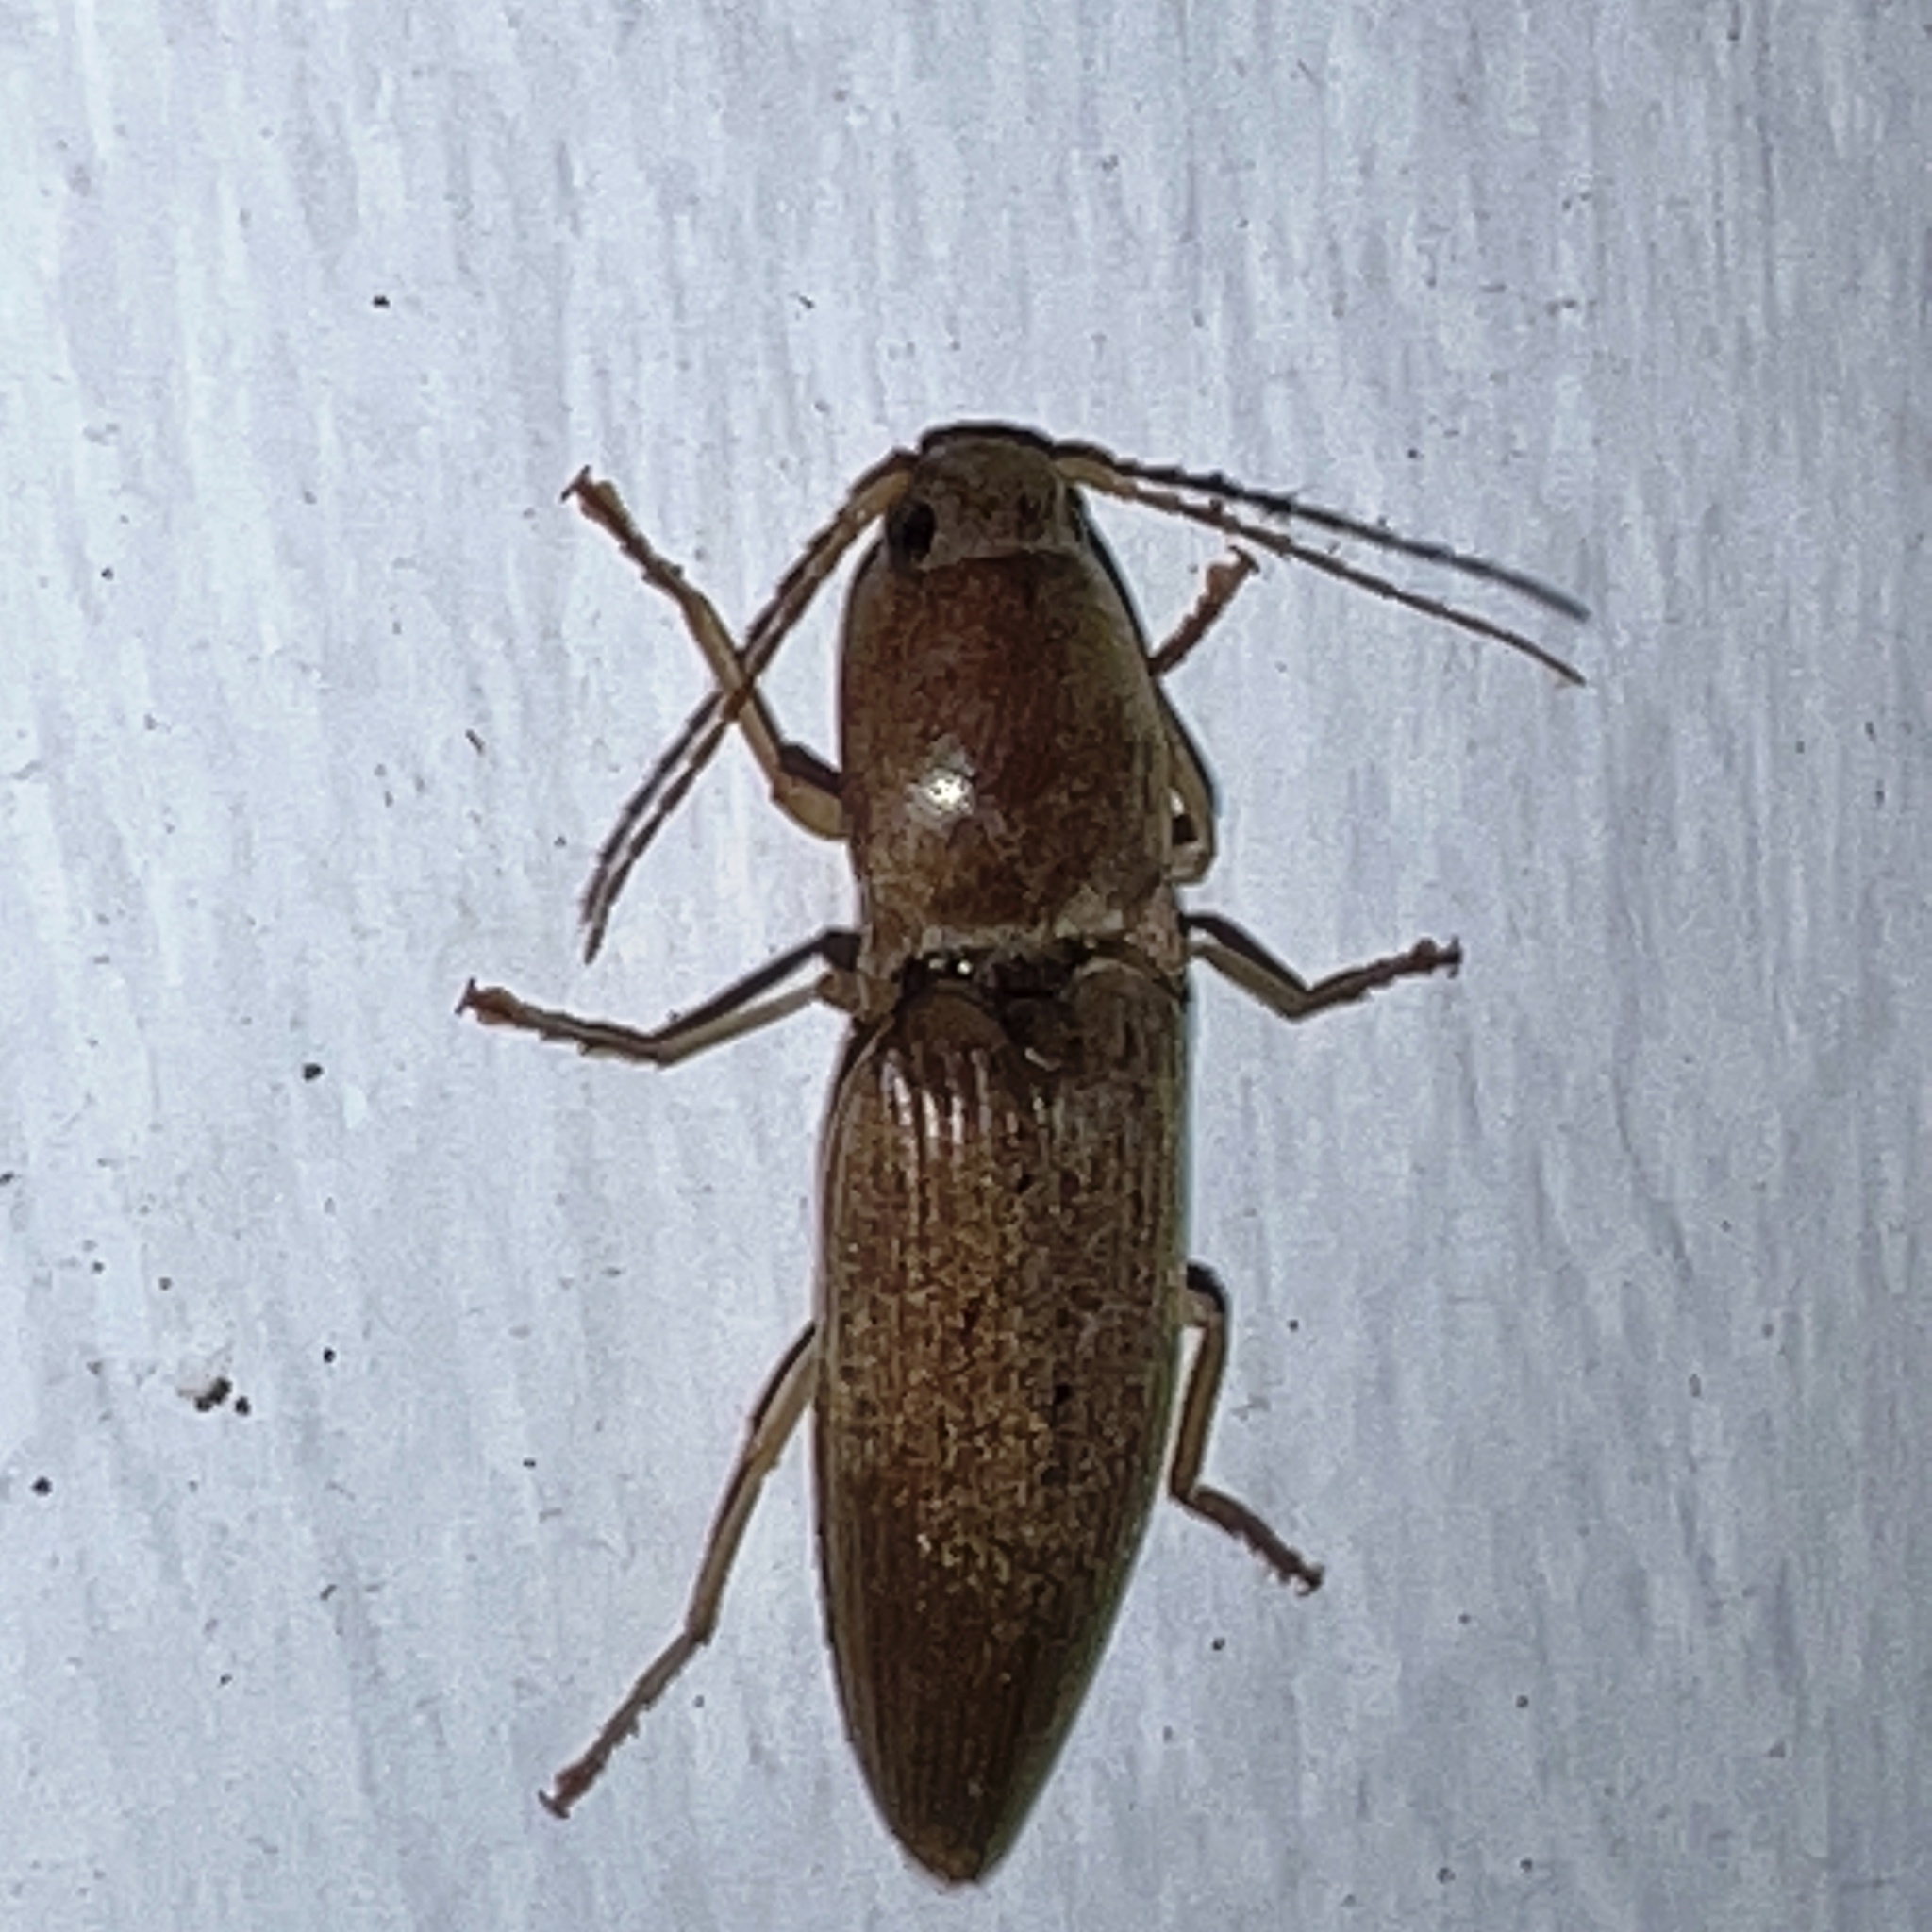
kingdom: Animalia
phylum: Arthropoda
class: Insecta
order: Coleoptera
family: Elateridae
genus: Monocrepidius
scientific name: Monocrepidius lividus
